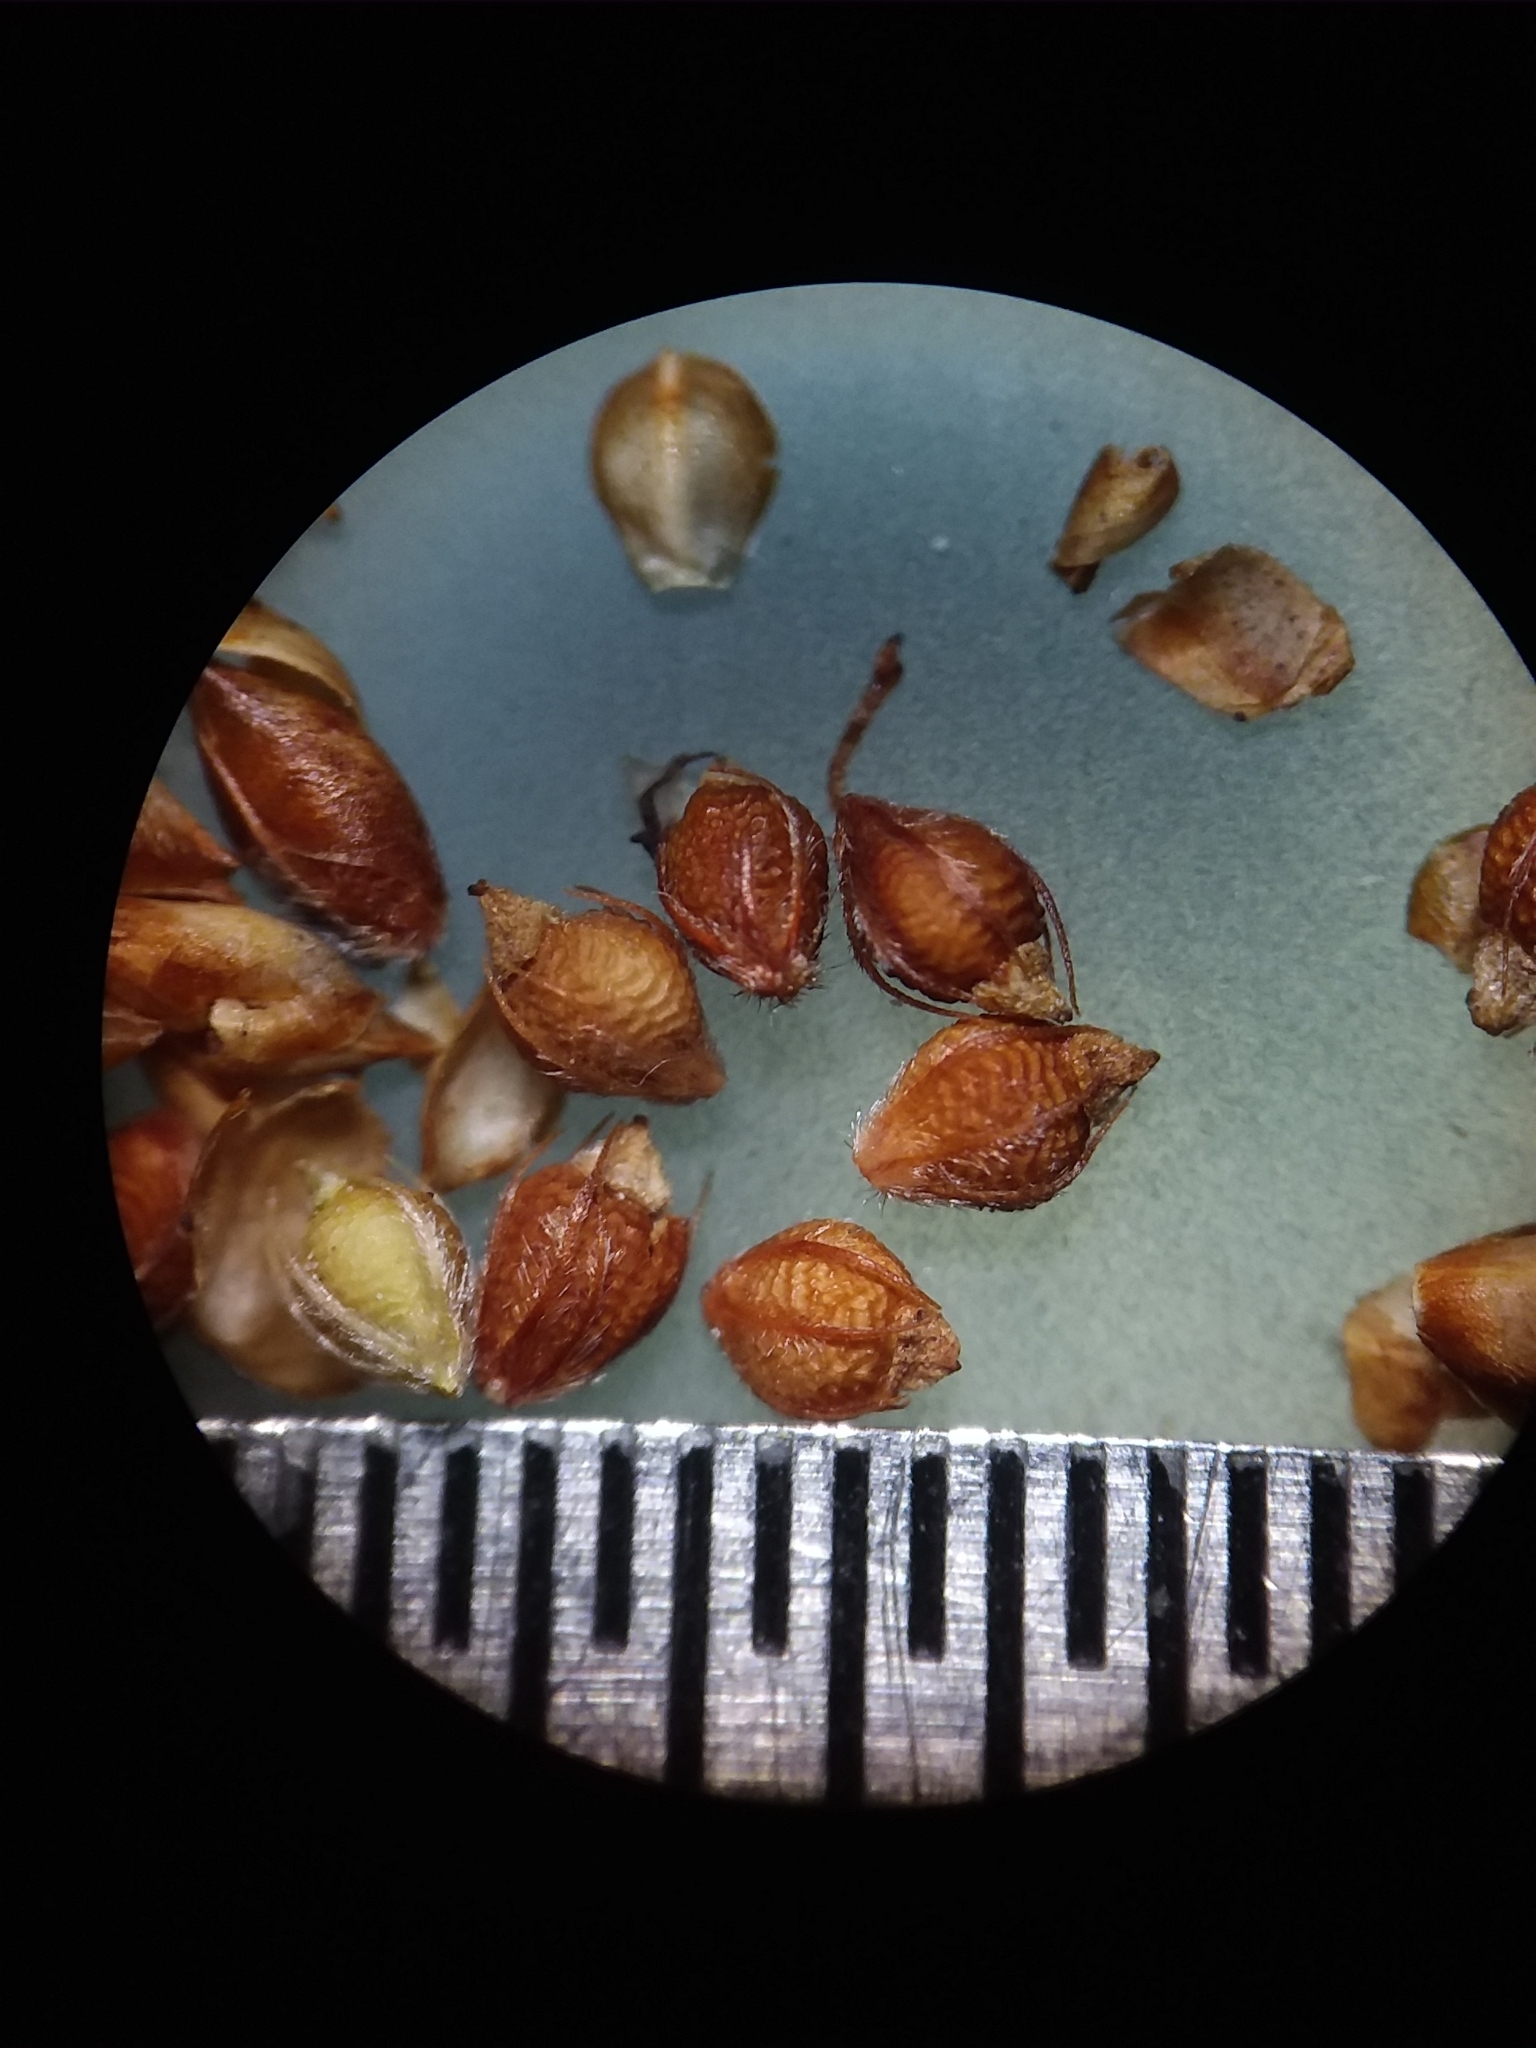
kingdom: Plantae
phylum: Tracheophyta
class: Liliopsida
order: Poales
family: Cyperaceae
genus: Rhynchospora
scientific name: Rhynchospora plumosa
